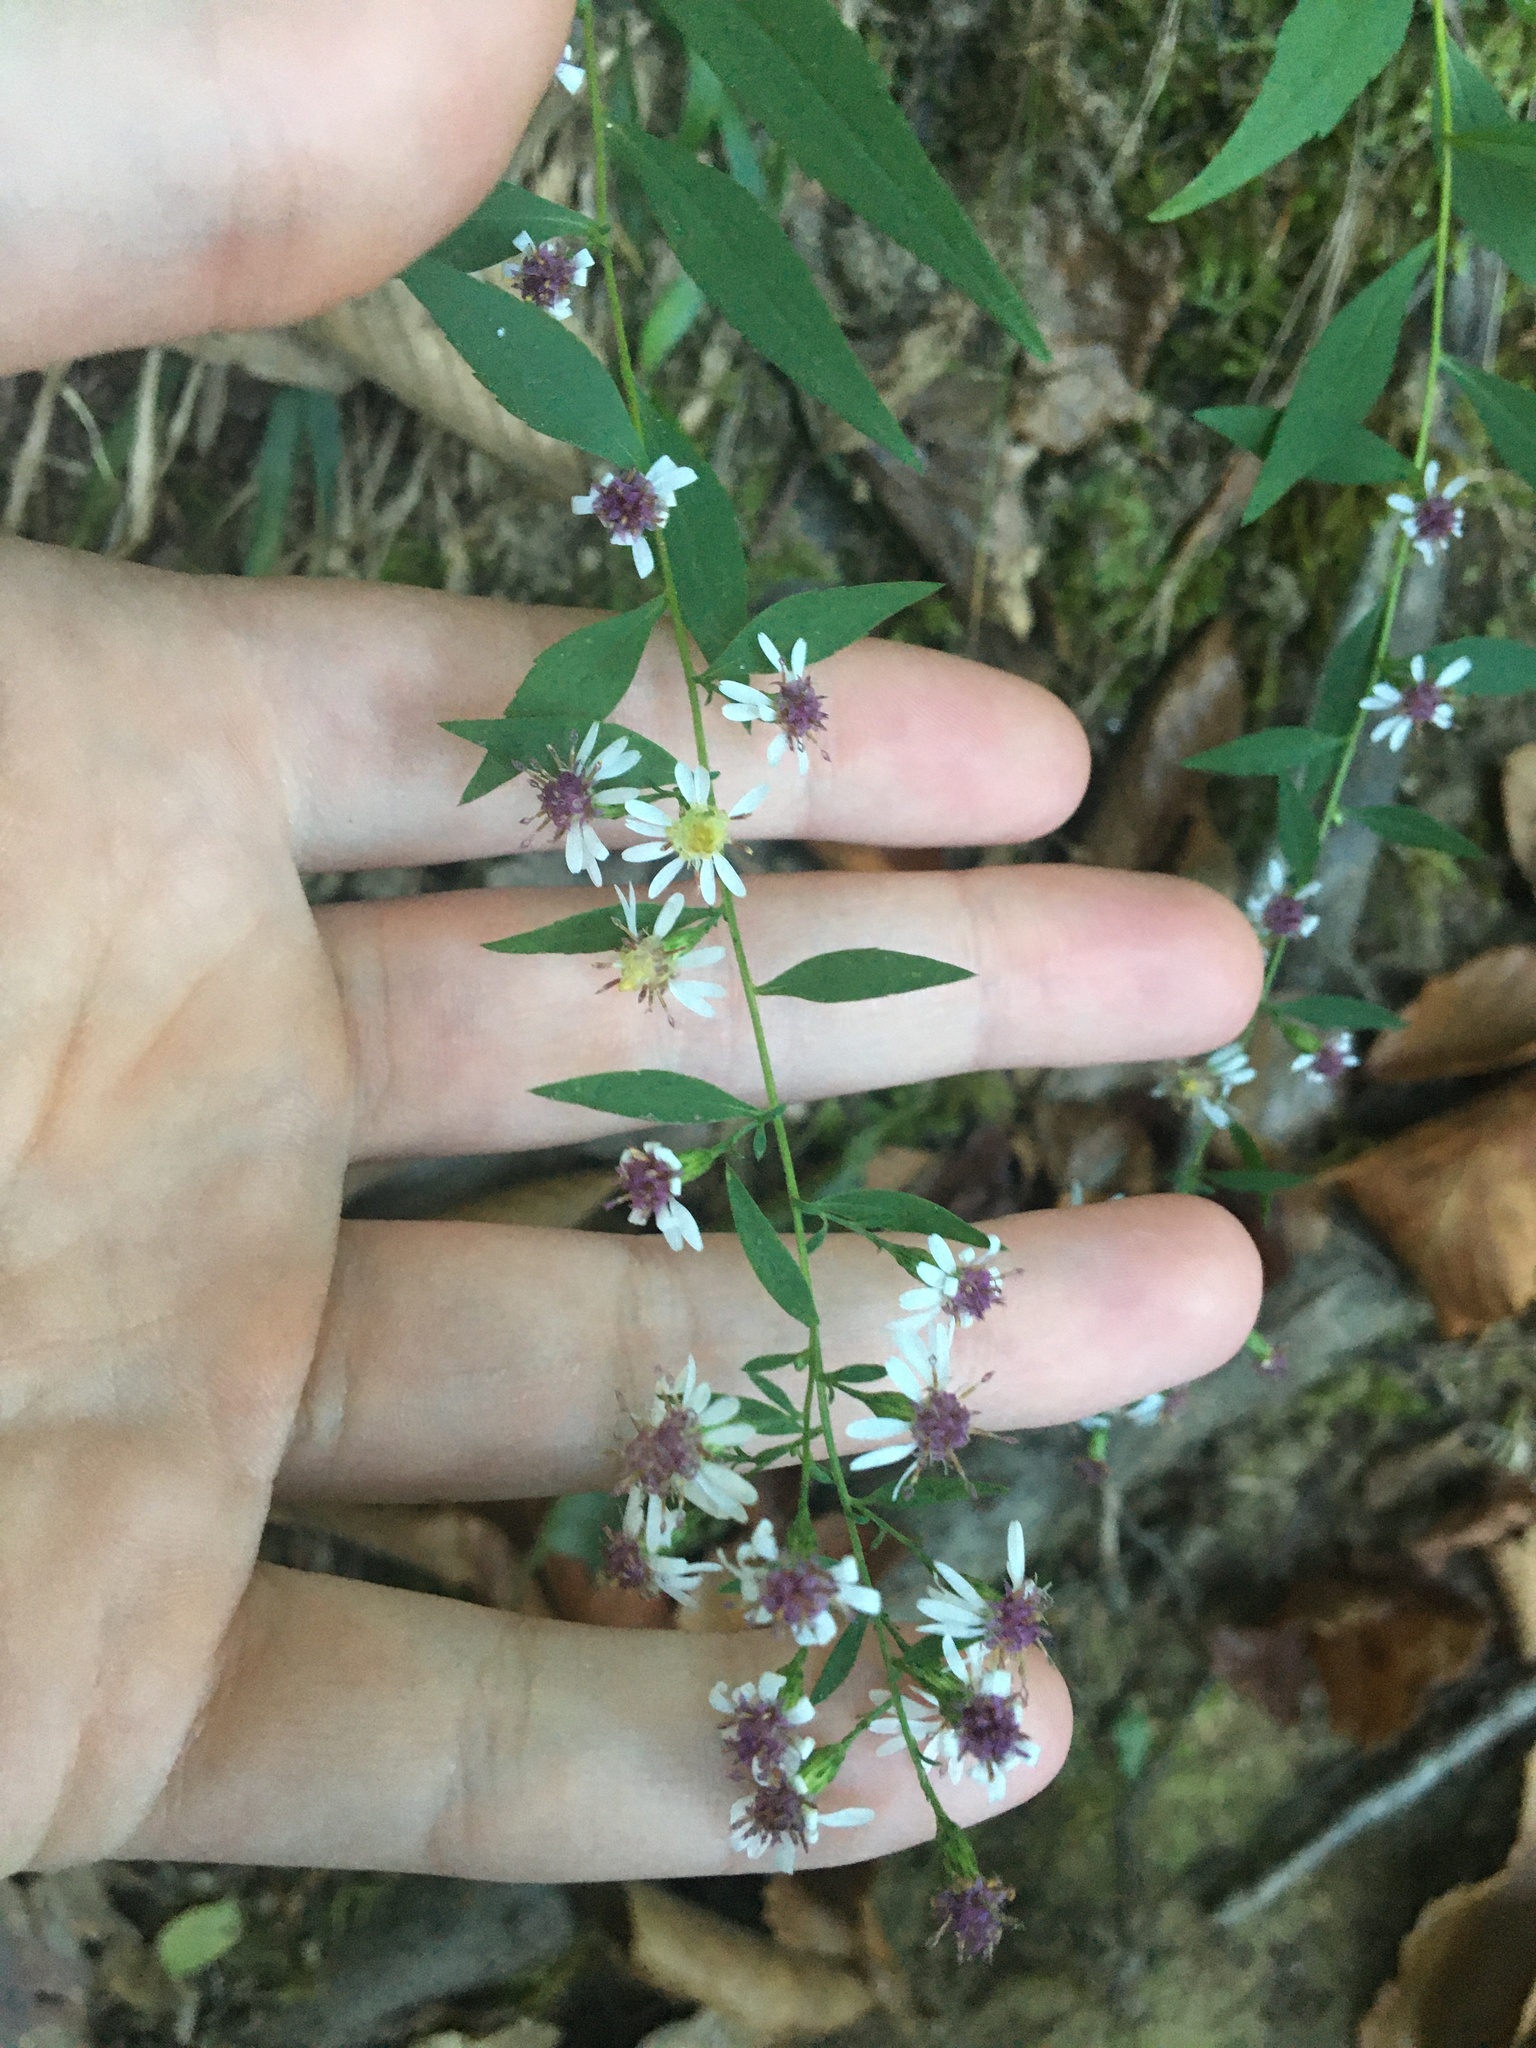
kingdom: Plantae
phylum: Tracheophyta
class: Magnoliopsida
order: Asterales
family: Asteraceae
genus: Symphyotrichum
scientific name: Symphyotrichum lateriflorum
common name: Calico aster
